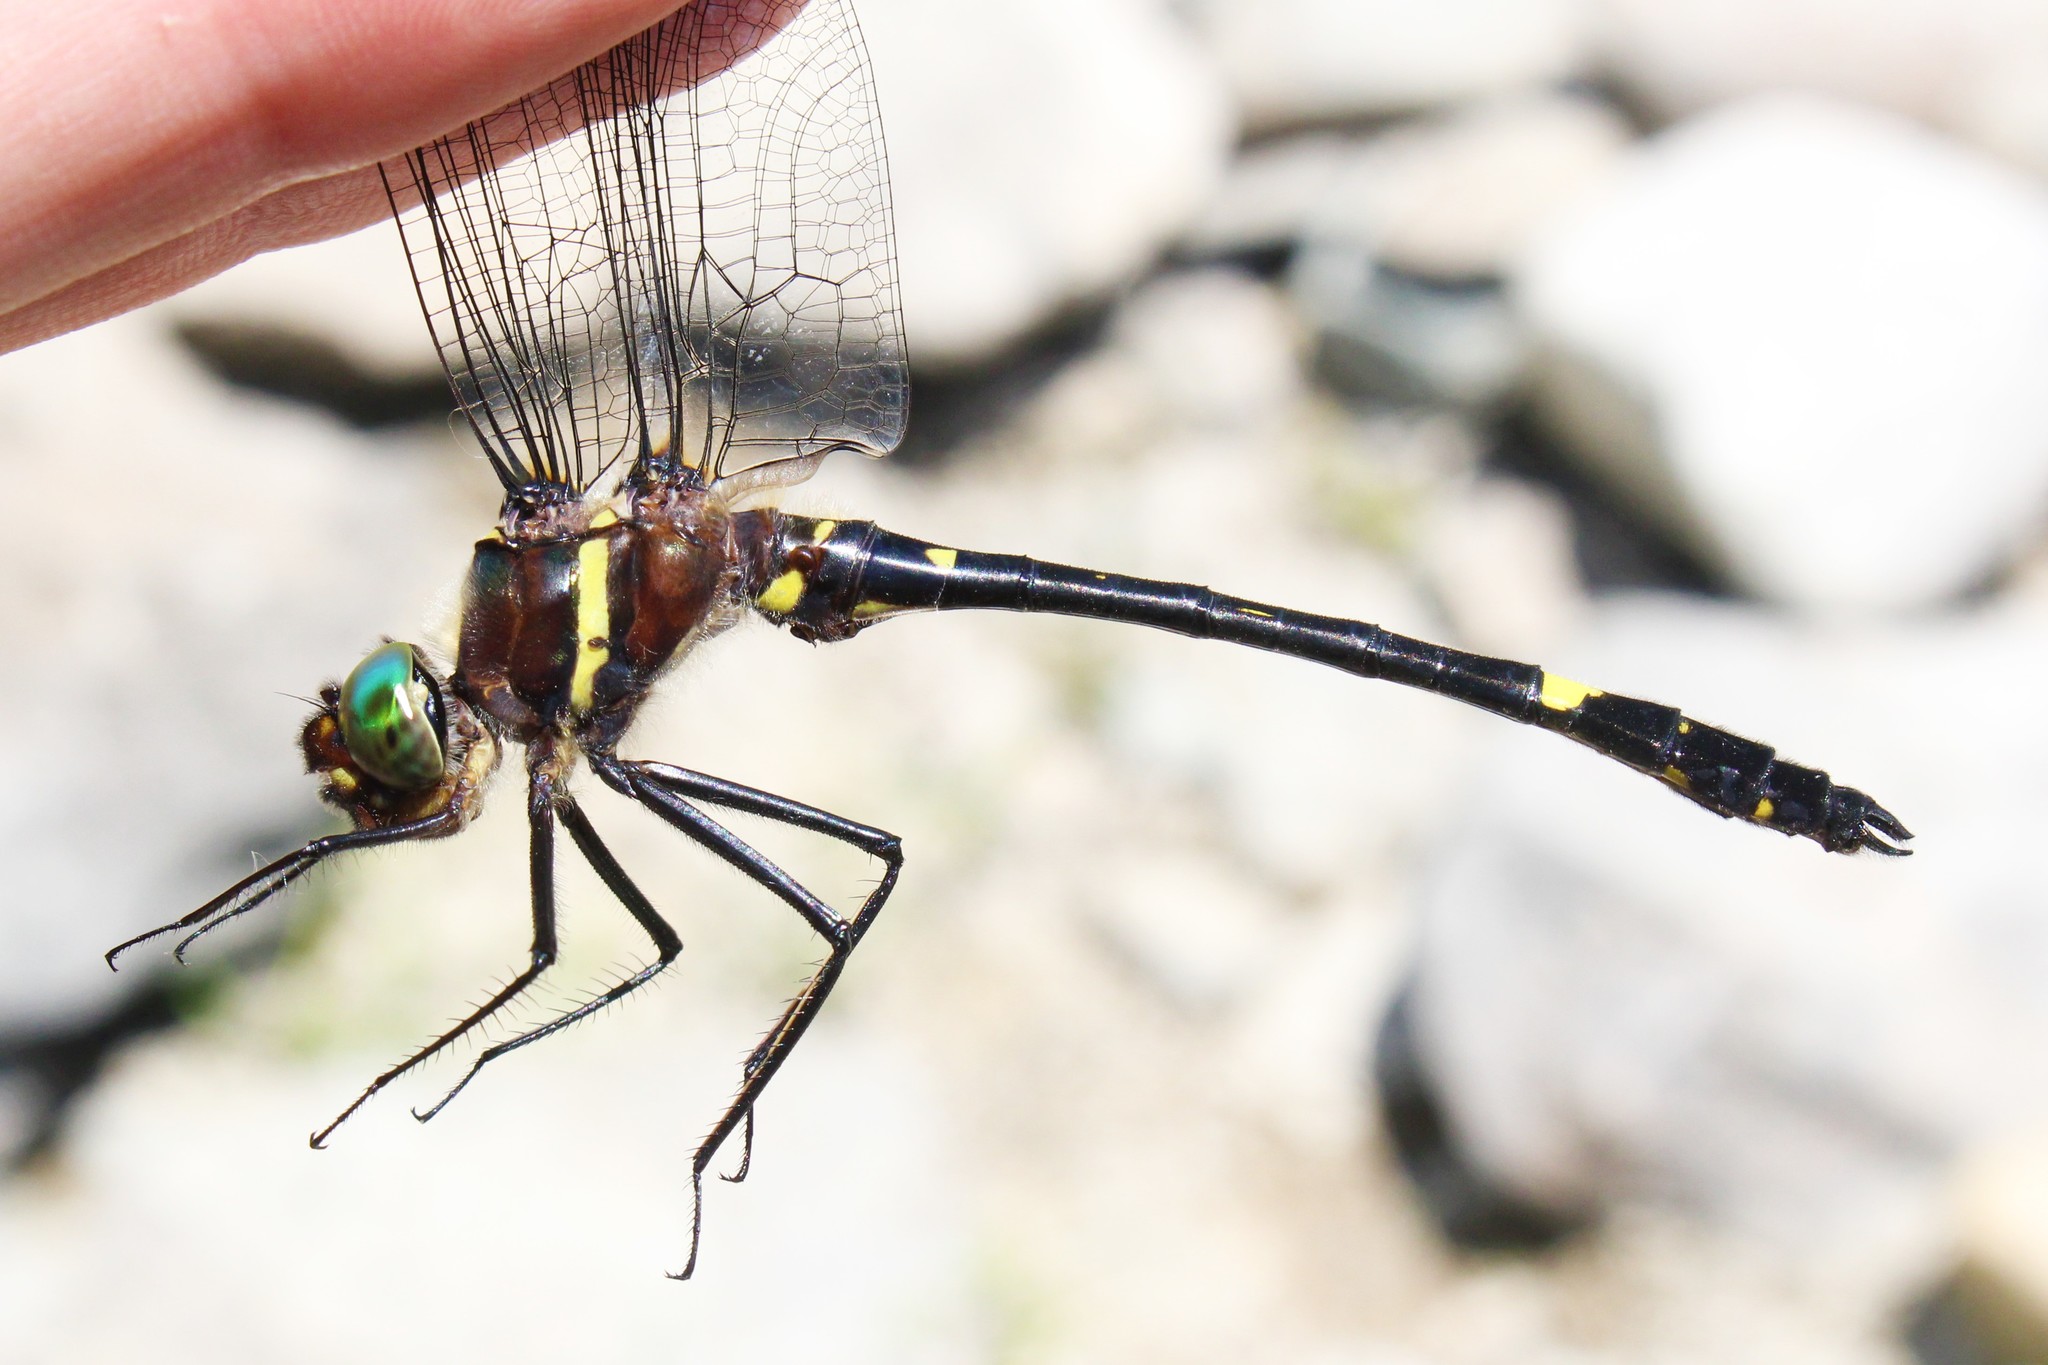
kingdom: Animalia
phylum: Arthropoda
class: Insecta
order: Odonata
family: Macromiidae
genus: Macromia
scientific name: Macromia illinoiensis
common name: Swift river cruiser
